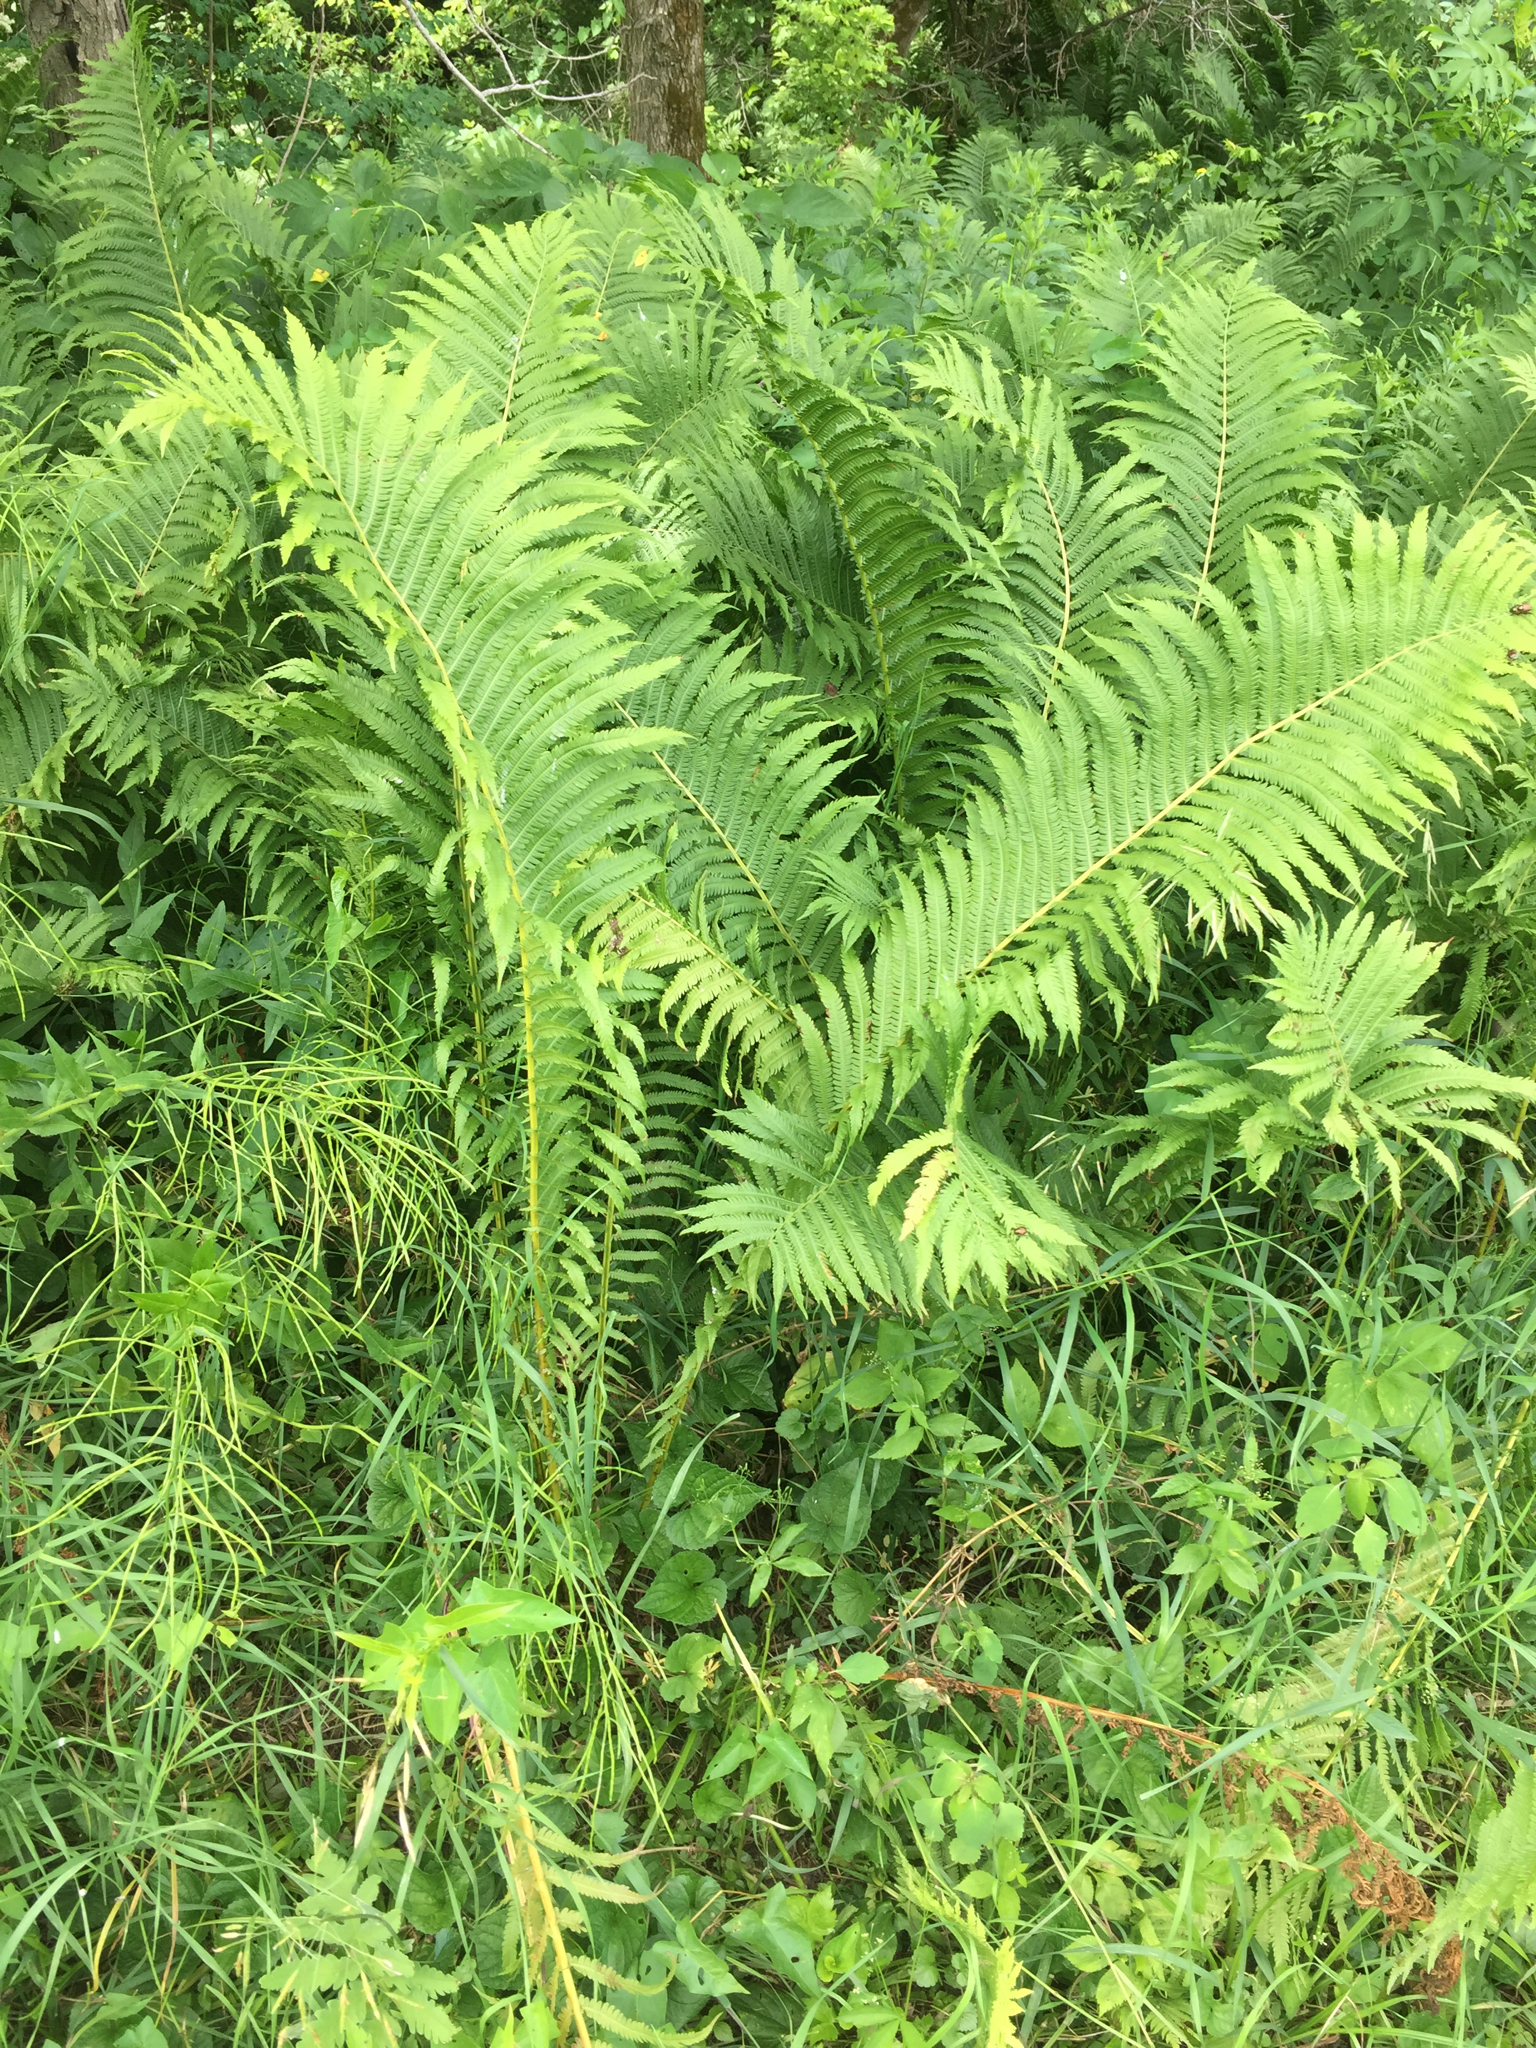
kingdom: Plantae
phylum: Tracheophyta
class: Polypodiopsida
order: Polypodiales
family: Onocleaceae
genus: Matteuccia
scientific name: Matteuccia struthiopteris
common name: Ostrich fern
